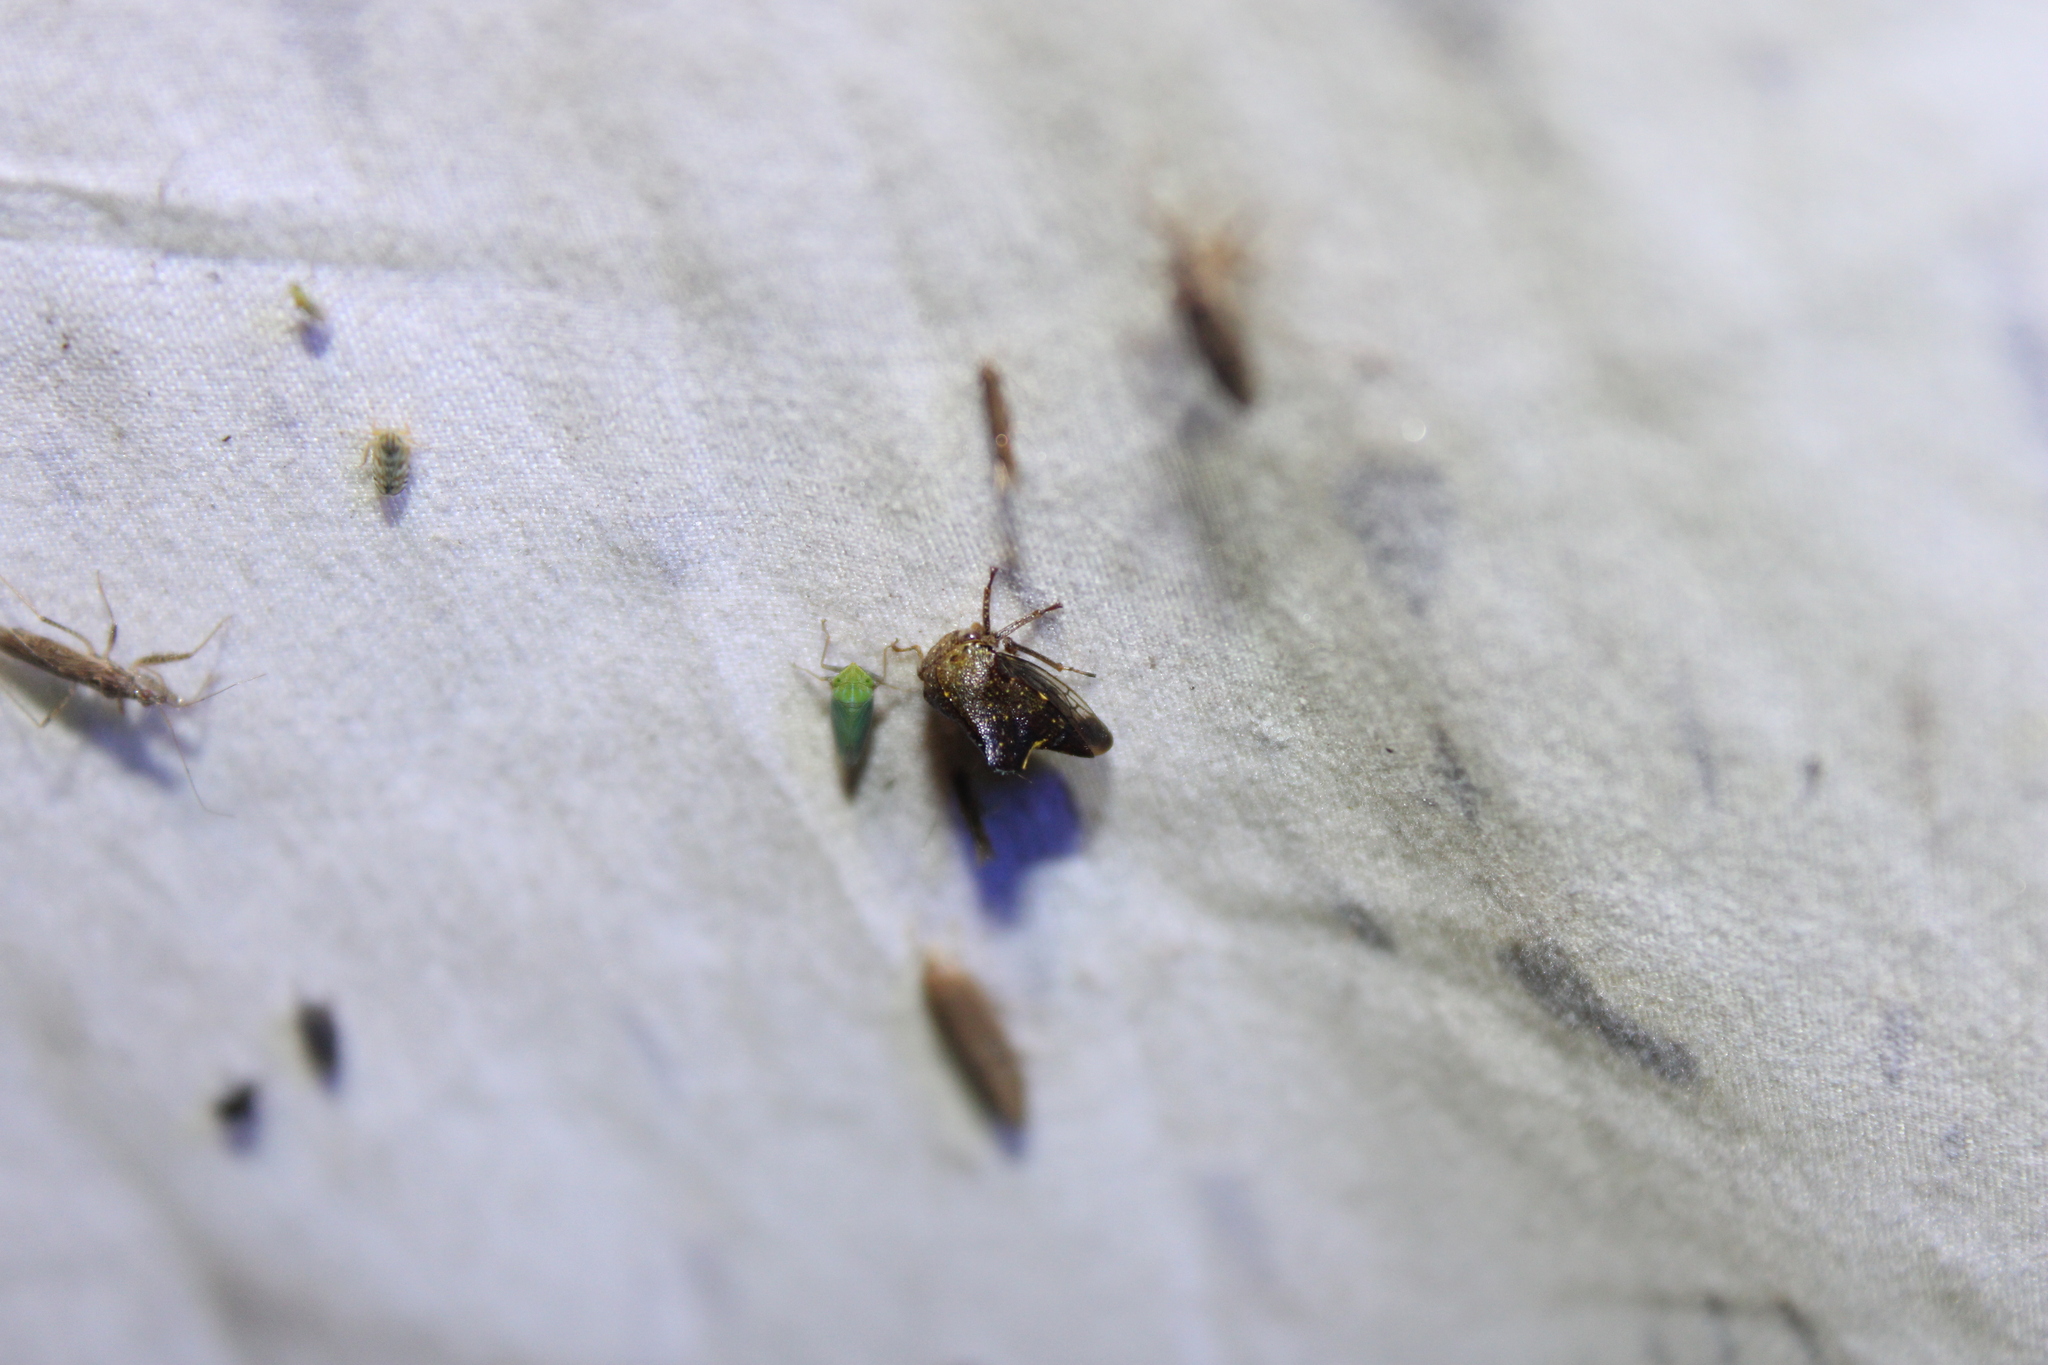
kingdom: Animalia
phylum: Arthropoda
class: Insecta
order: Hemiptera
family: Membracidae
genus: Telamona
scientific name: Telamona monticola
